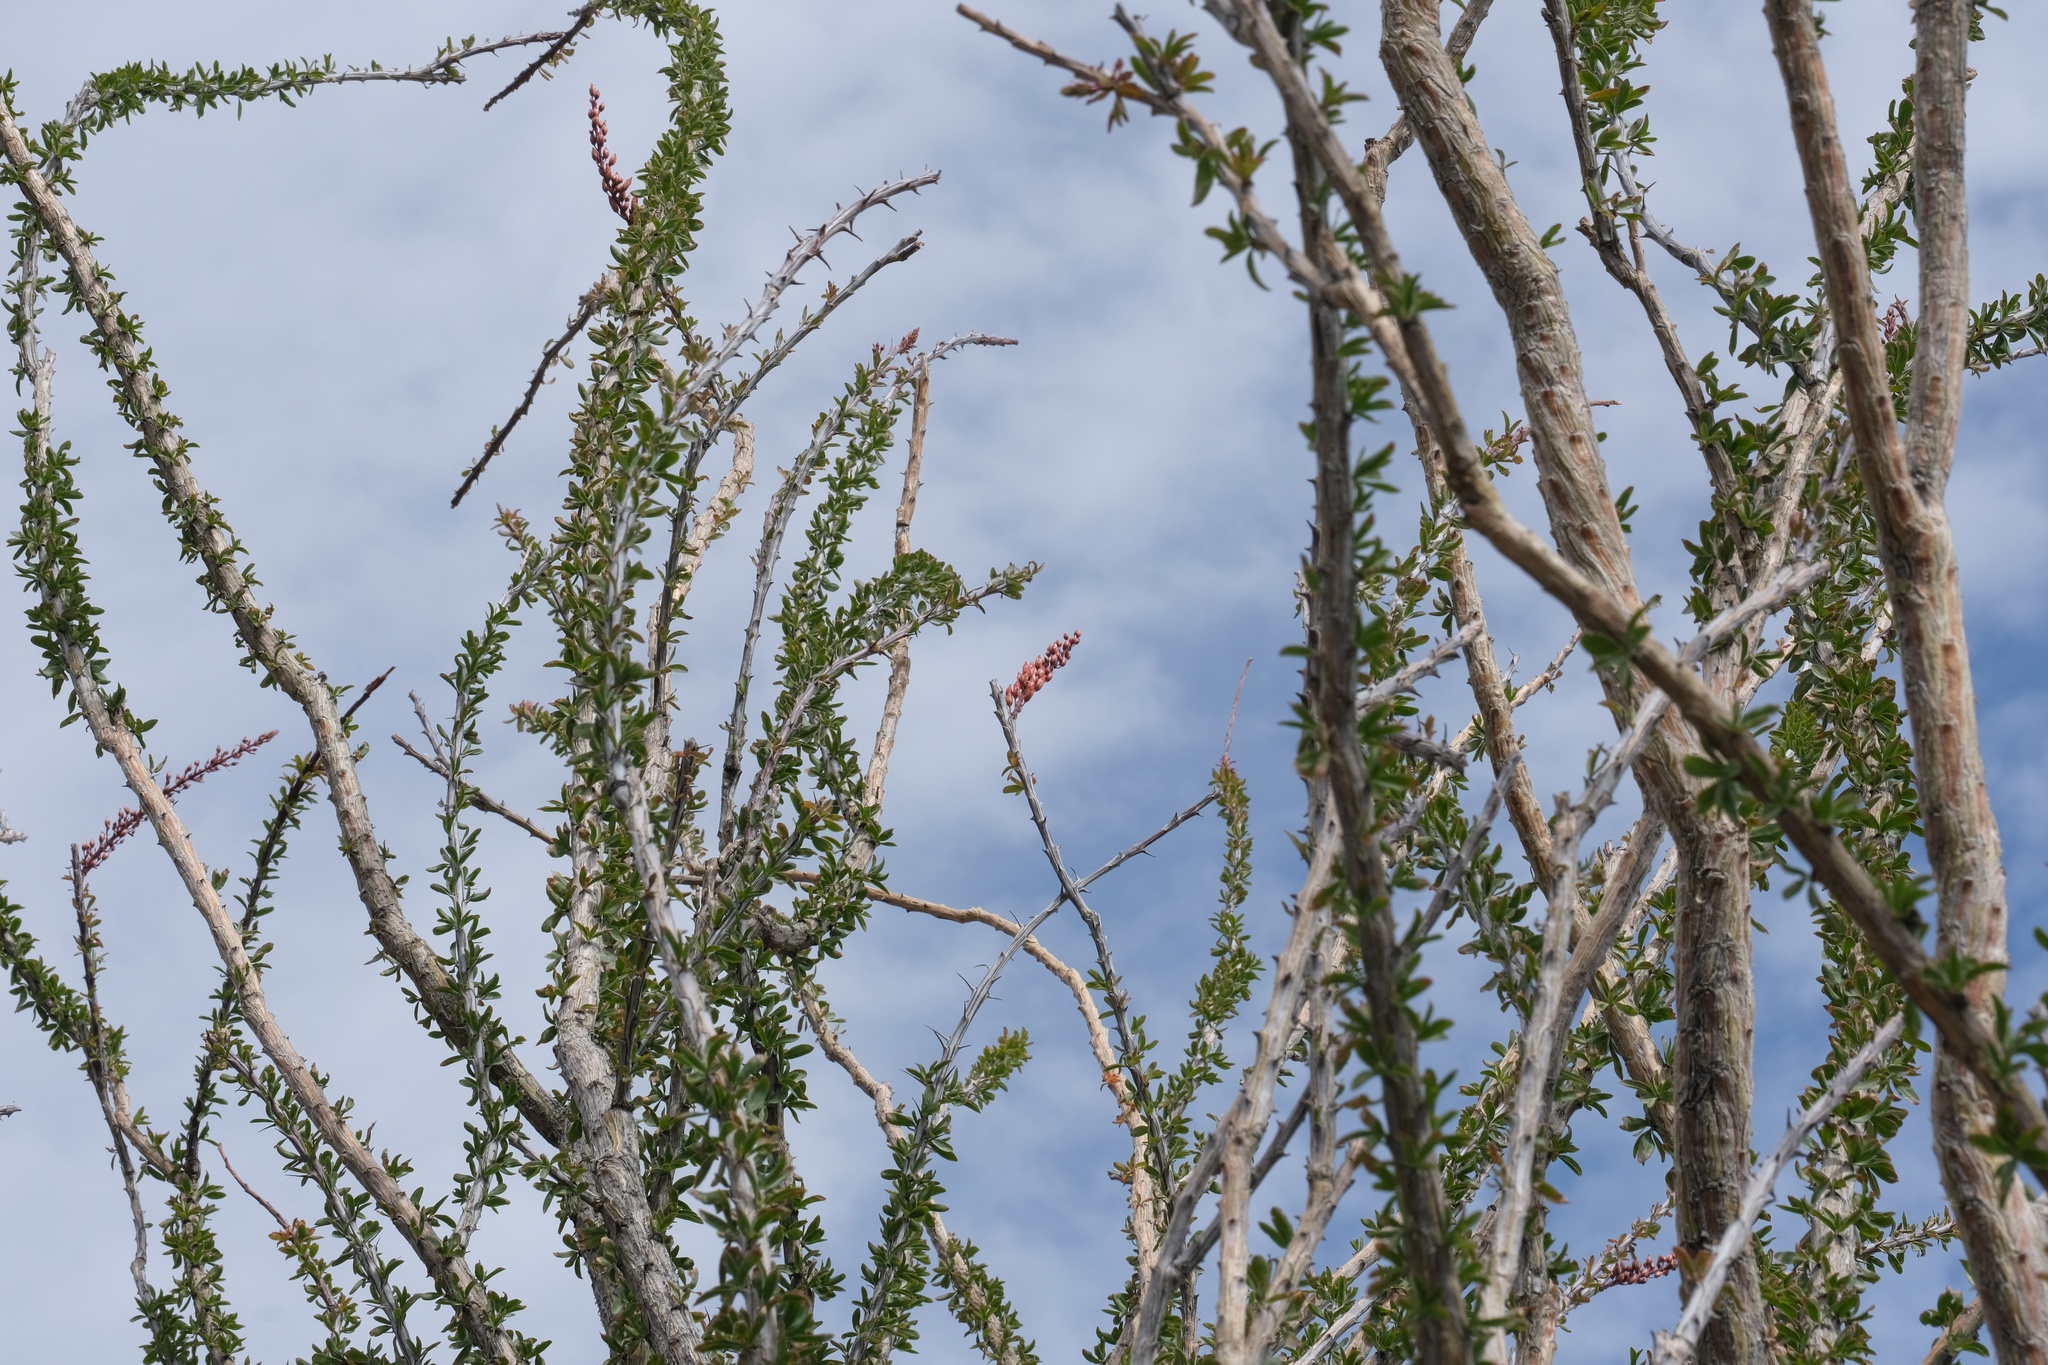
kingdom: Plantae
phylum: Tracheophyta
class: Magnoliopsida
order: Ericales
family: Fouquieriaceae
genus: Fouquieria
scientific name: Fouquieria splendens
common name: Vine-cactus
